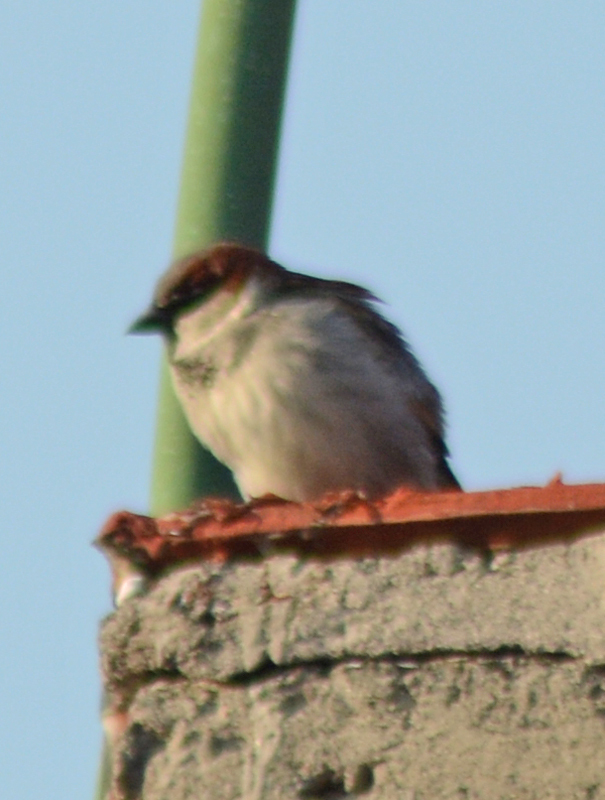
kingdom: Animalia
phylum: Chordata
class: Aves
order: Passeriformes
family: Passeridae
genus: Passer
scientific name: Passer domesticus
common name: House sparrow
